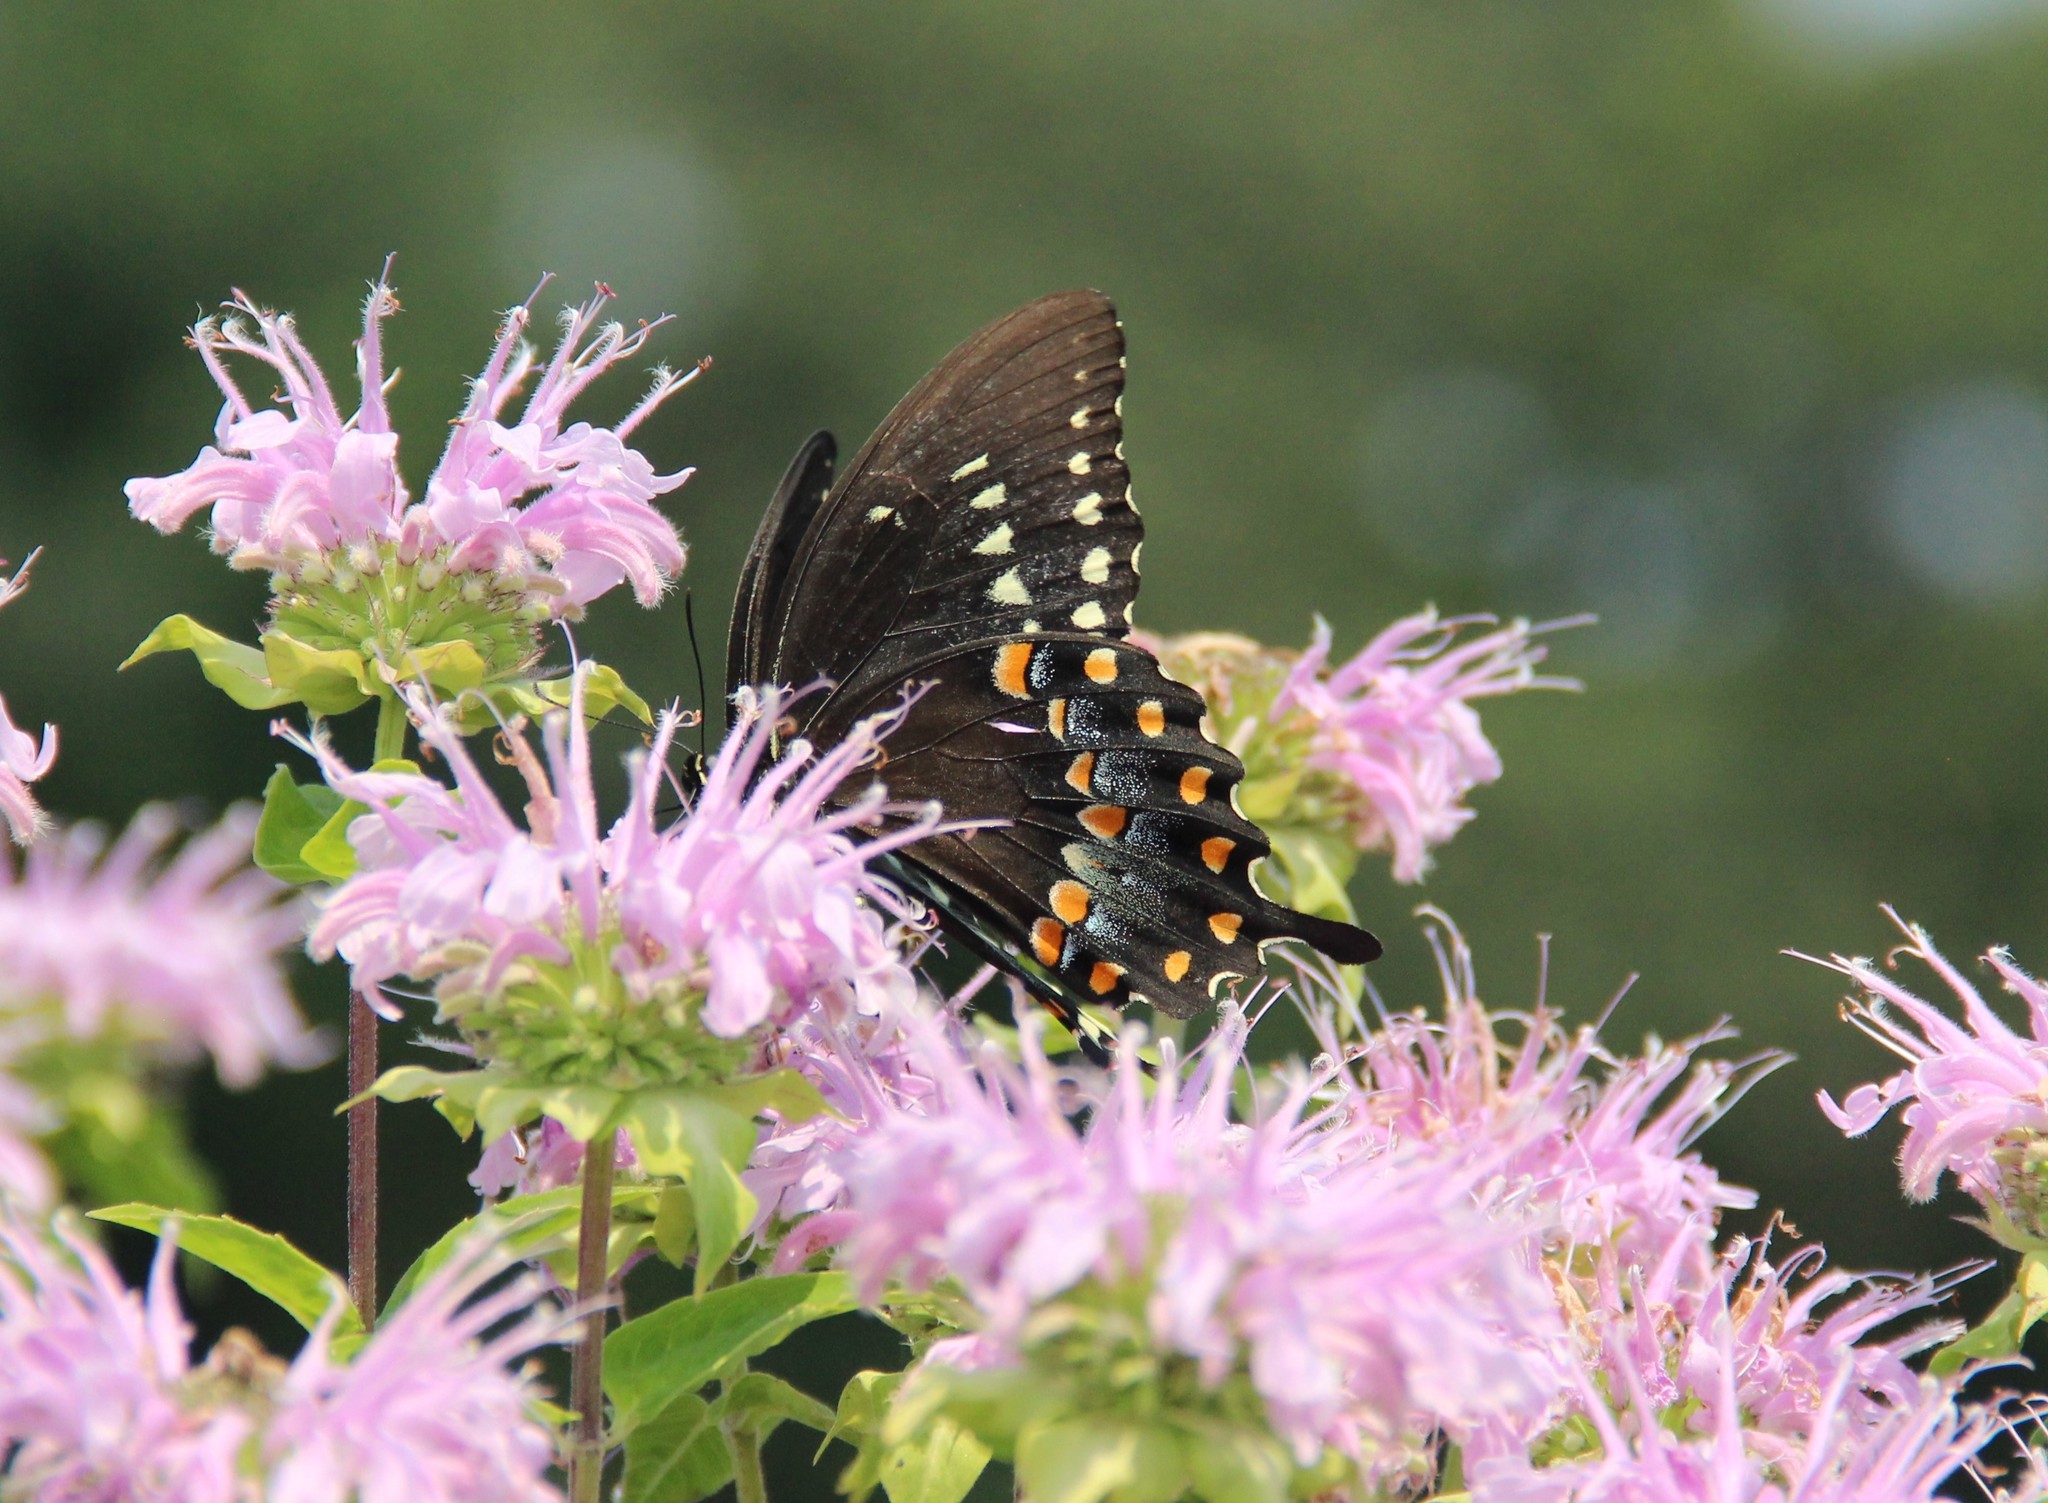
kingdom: Animalia
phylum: Arthropoda
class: Insecta
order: Lepidoptera
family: Papilionidae
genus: Papilio
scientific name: Papilio troilus
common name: Spicebush swallowtail
